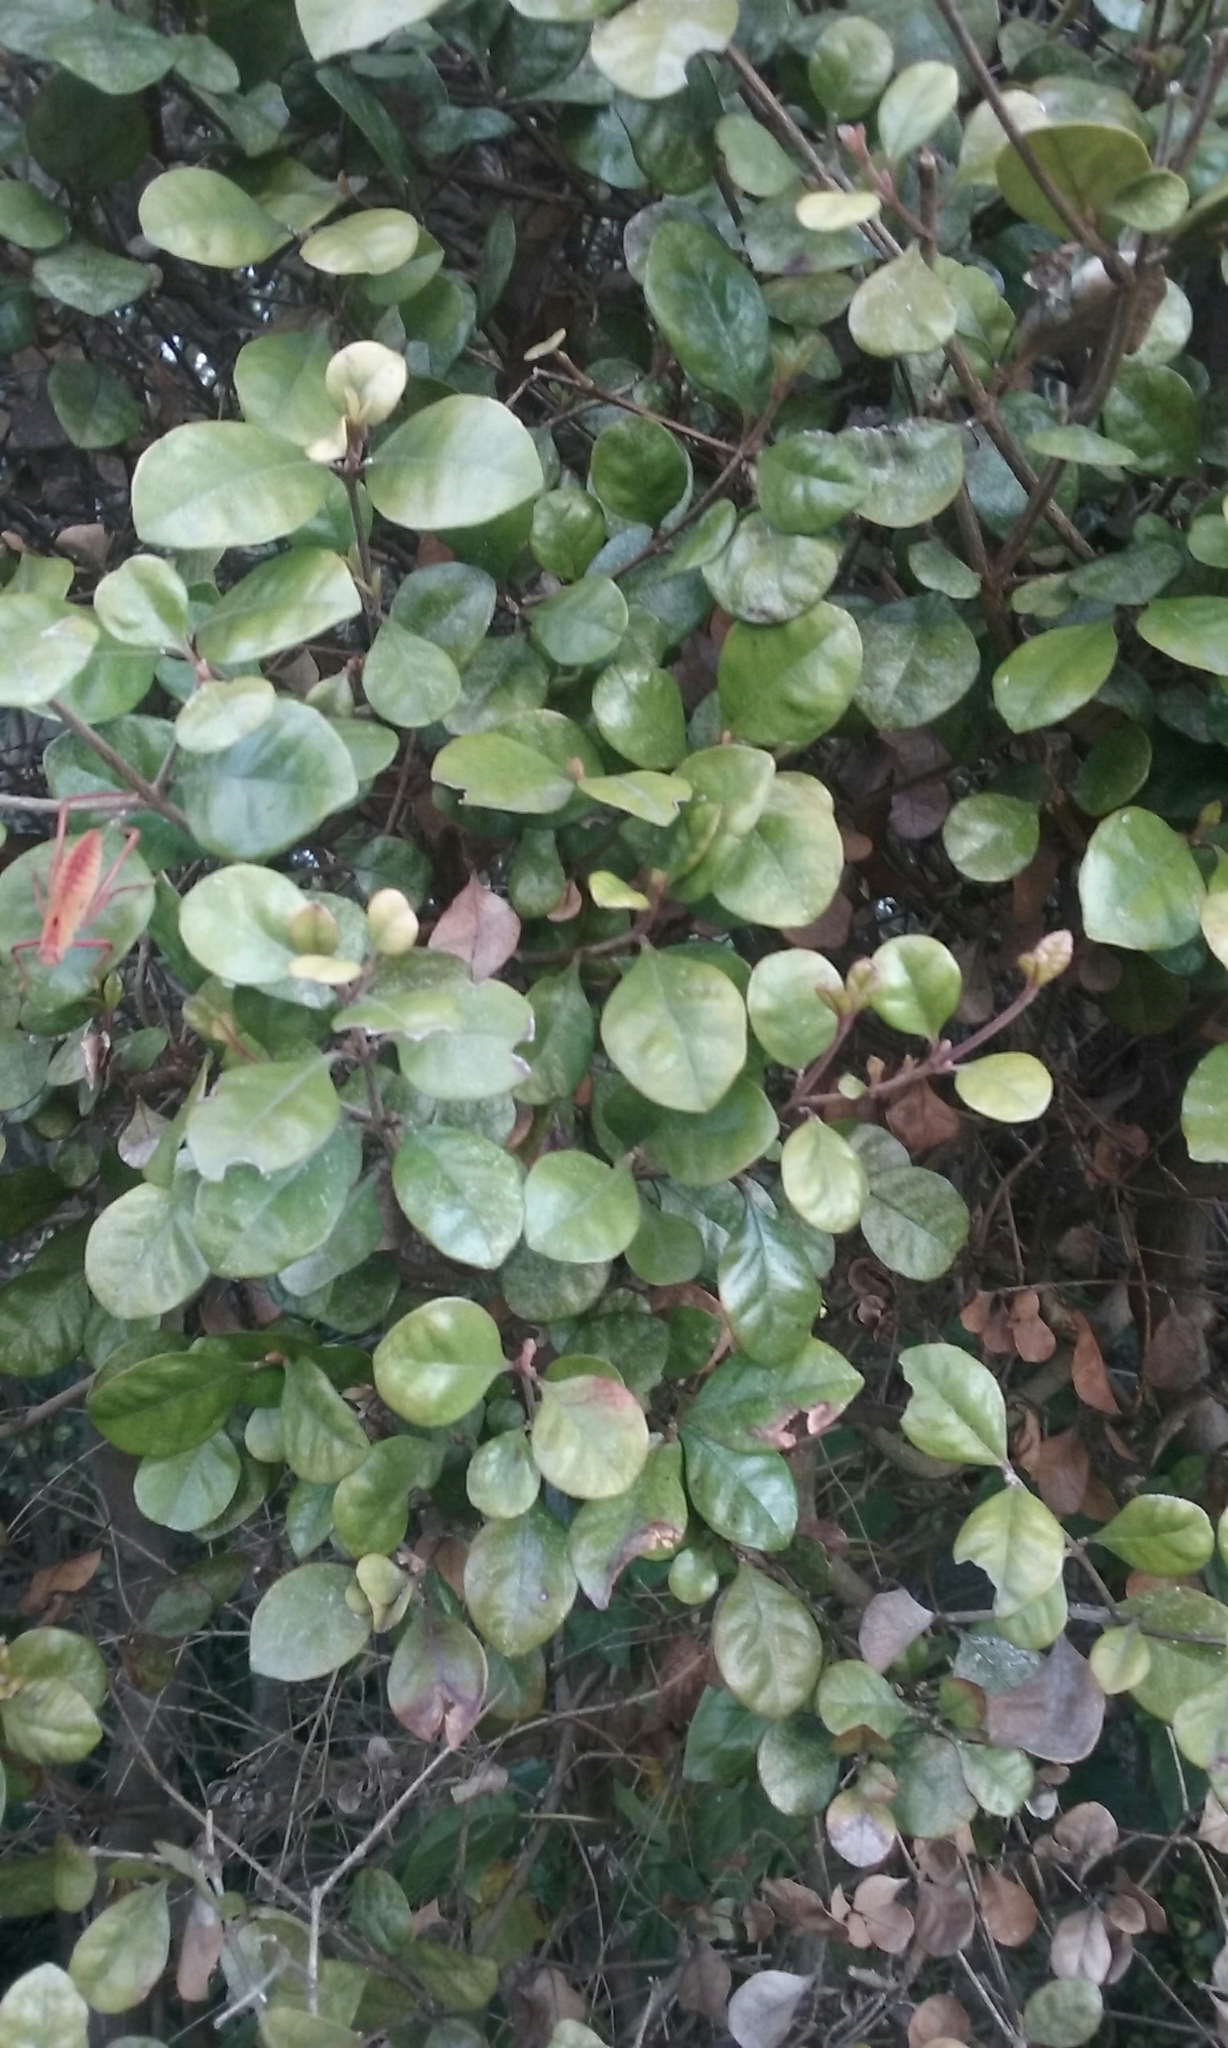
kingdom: Animalia
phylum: Arthropoda
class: Insecta
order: Orthoptera
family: Tettigoniidae
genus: Caedicia
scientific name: Caedicia simplex
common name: Common garden katydid
